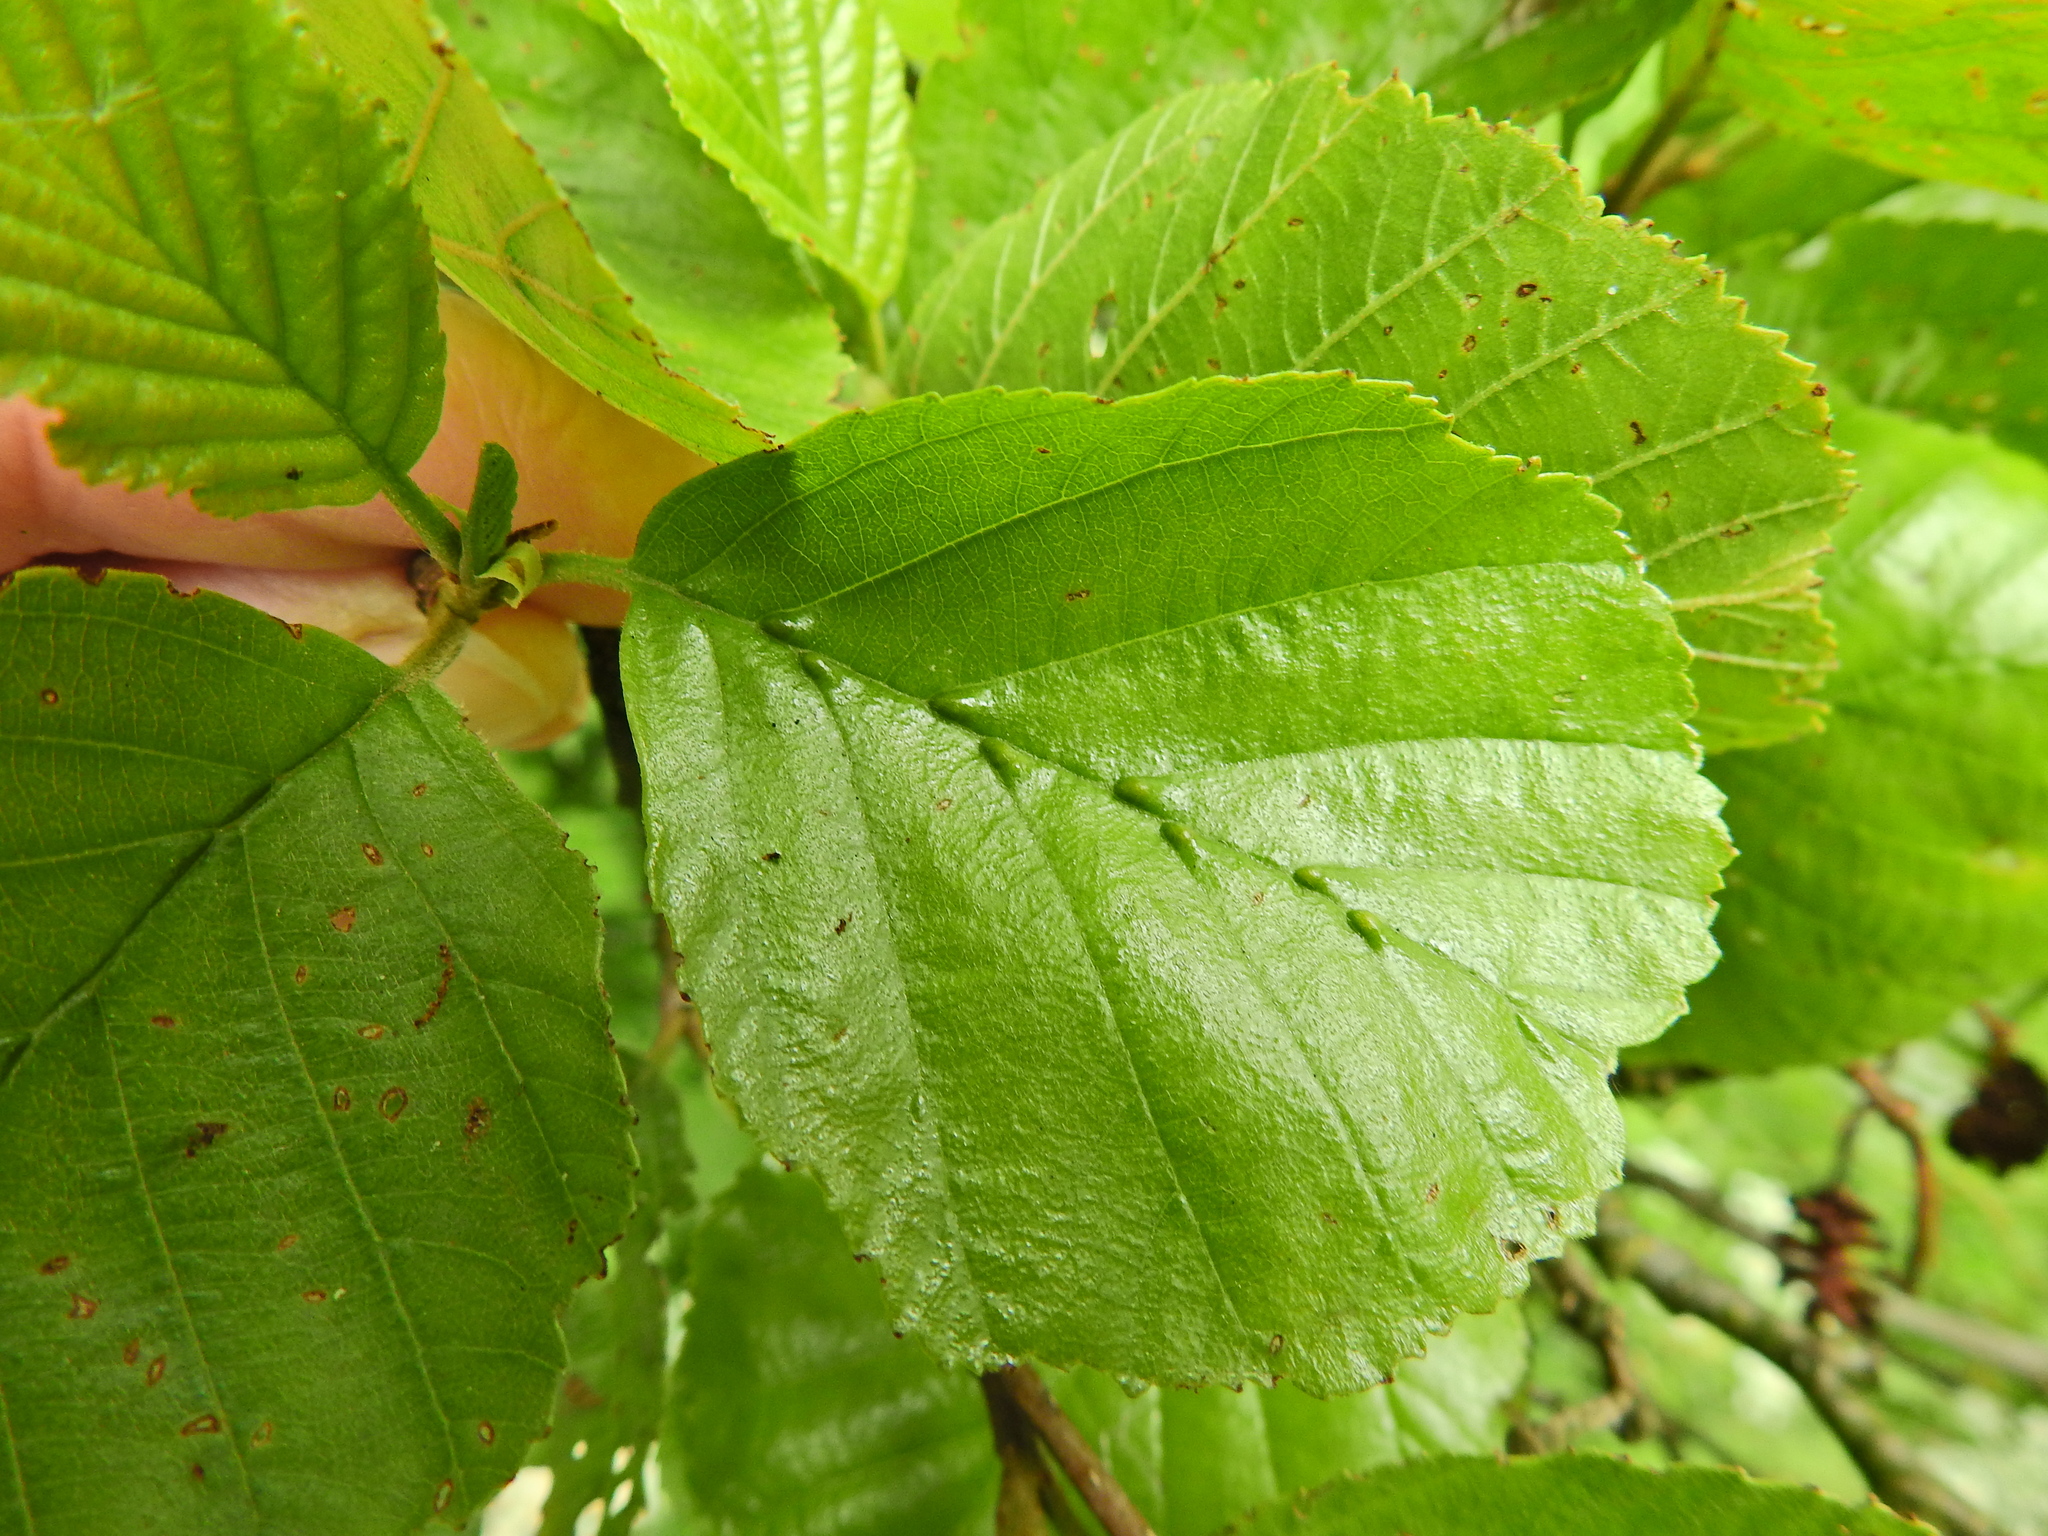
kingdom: Animalia
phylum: Arthropoda
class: Arachnida
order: Trombidiformes
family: Eriophyidae
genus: Eriophyes
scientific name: Eriophyes inangulis
